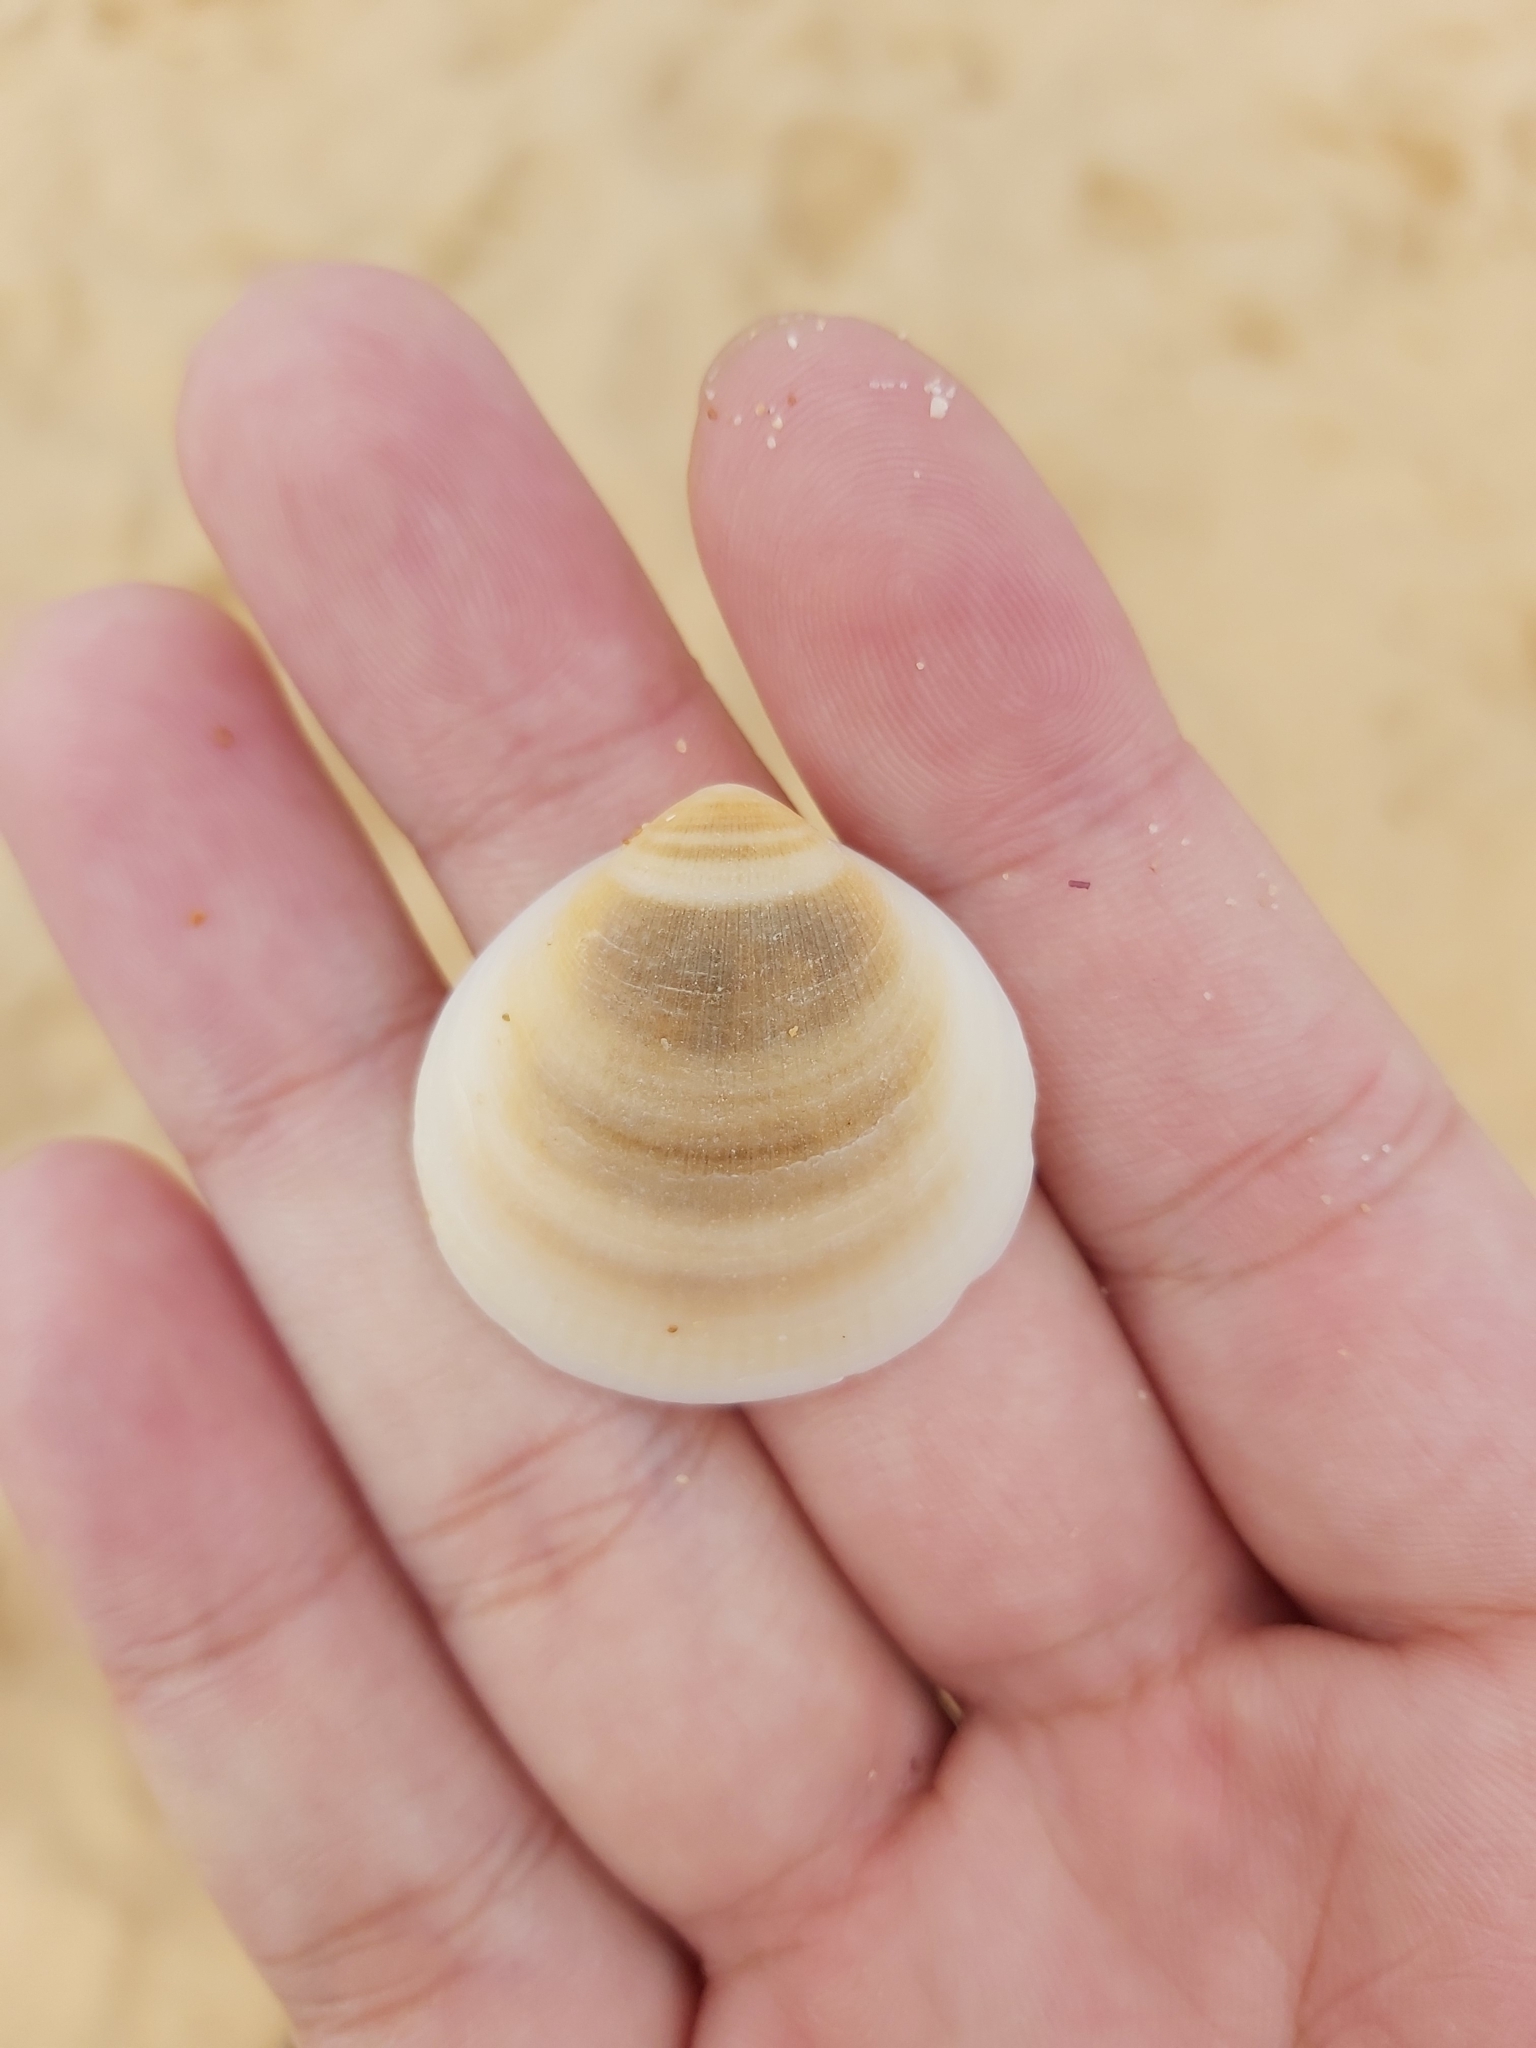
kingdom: Animalia
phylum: Mollusca
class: Bivalvia
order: Arcida
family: Glycymerididae
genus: Glycymeris
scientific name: Glycymeris grayana
